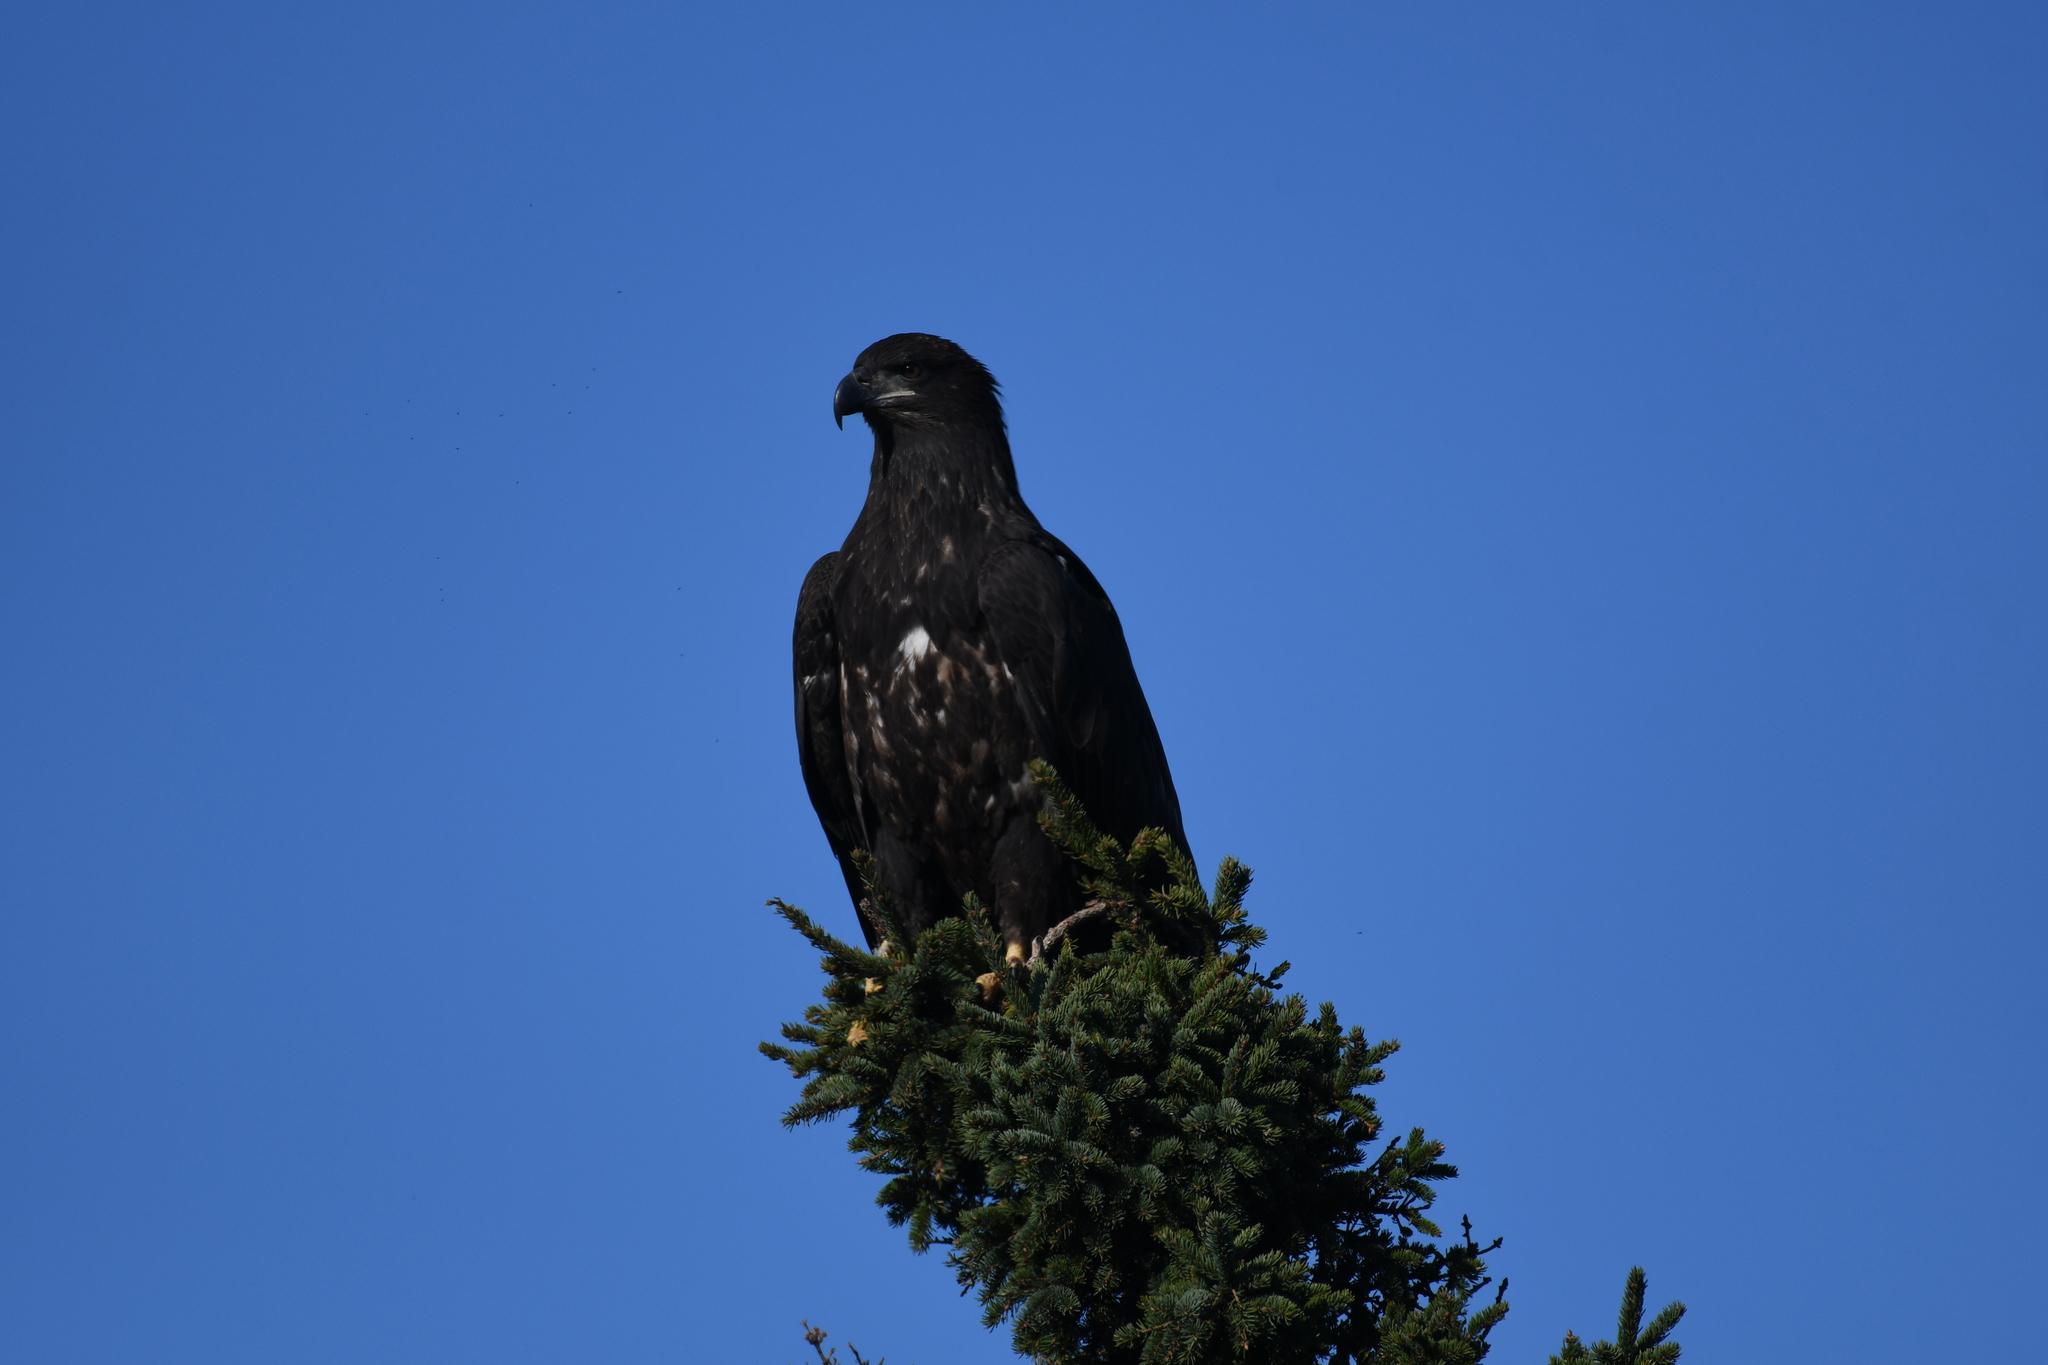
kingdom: Animalia
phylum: Chordata
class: Aves
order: Accipitriformes
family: Accipitridae
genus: Haliaeetus
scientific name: Haliaeetus leucocephalus
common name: Bald eagle
